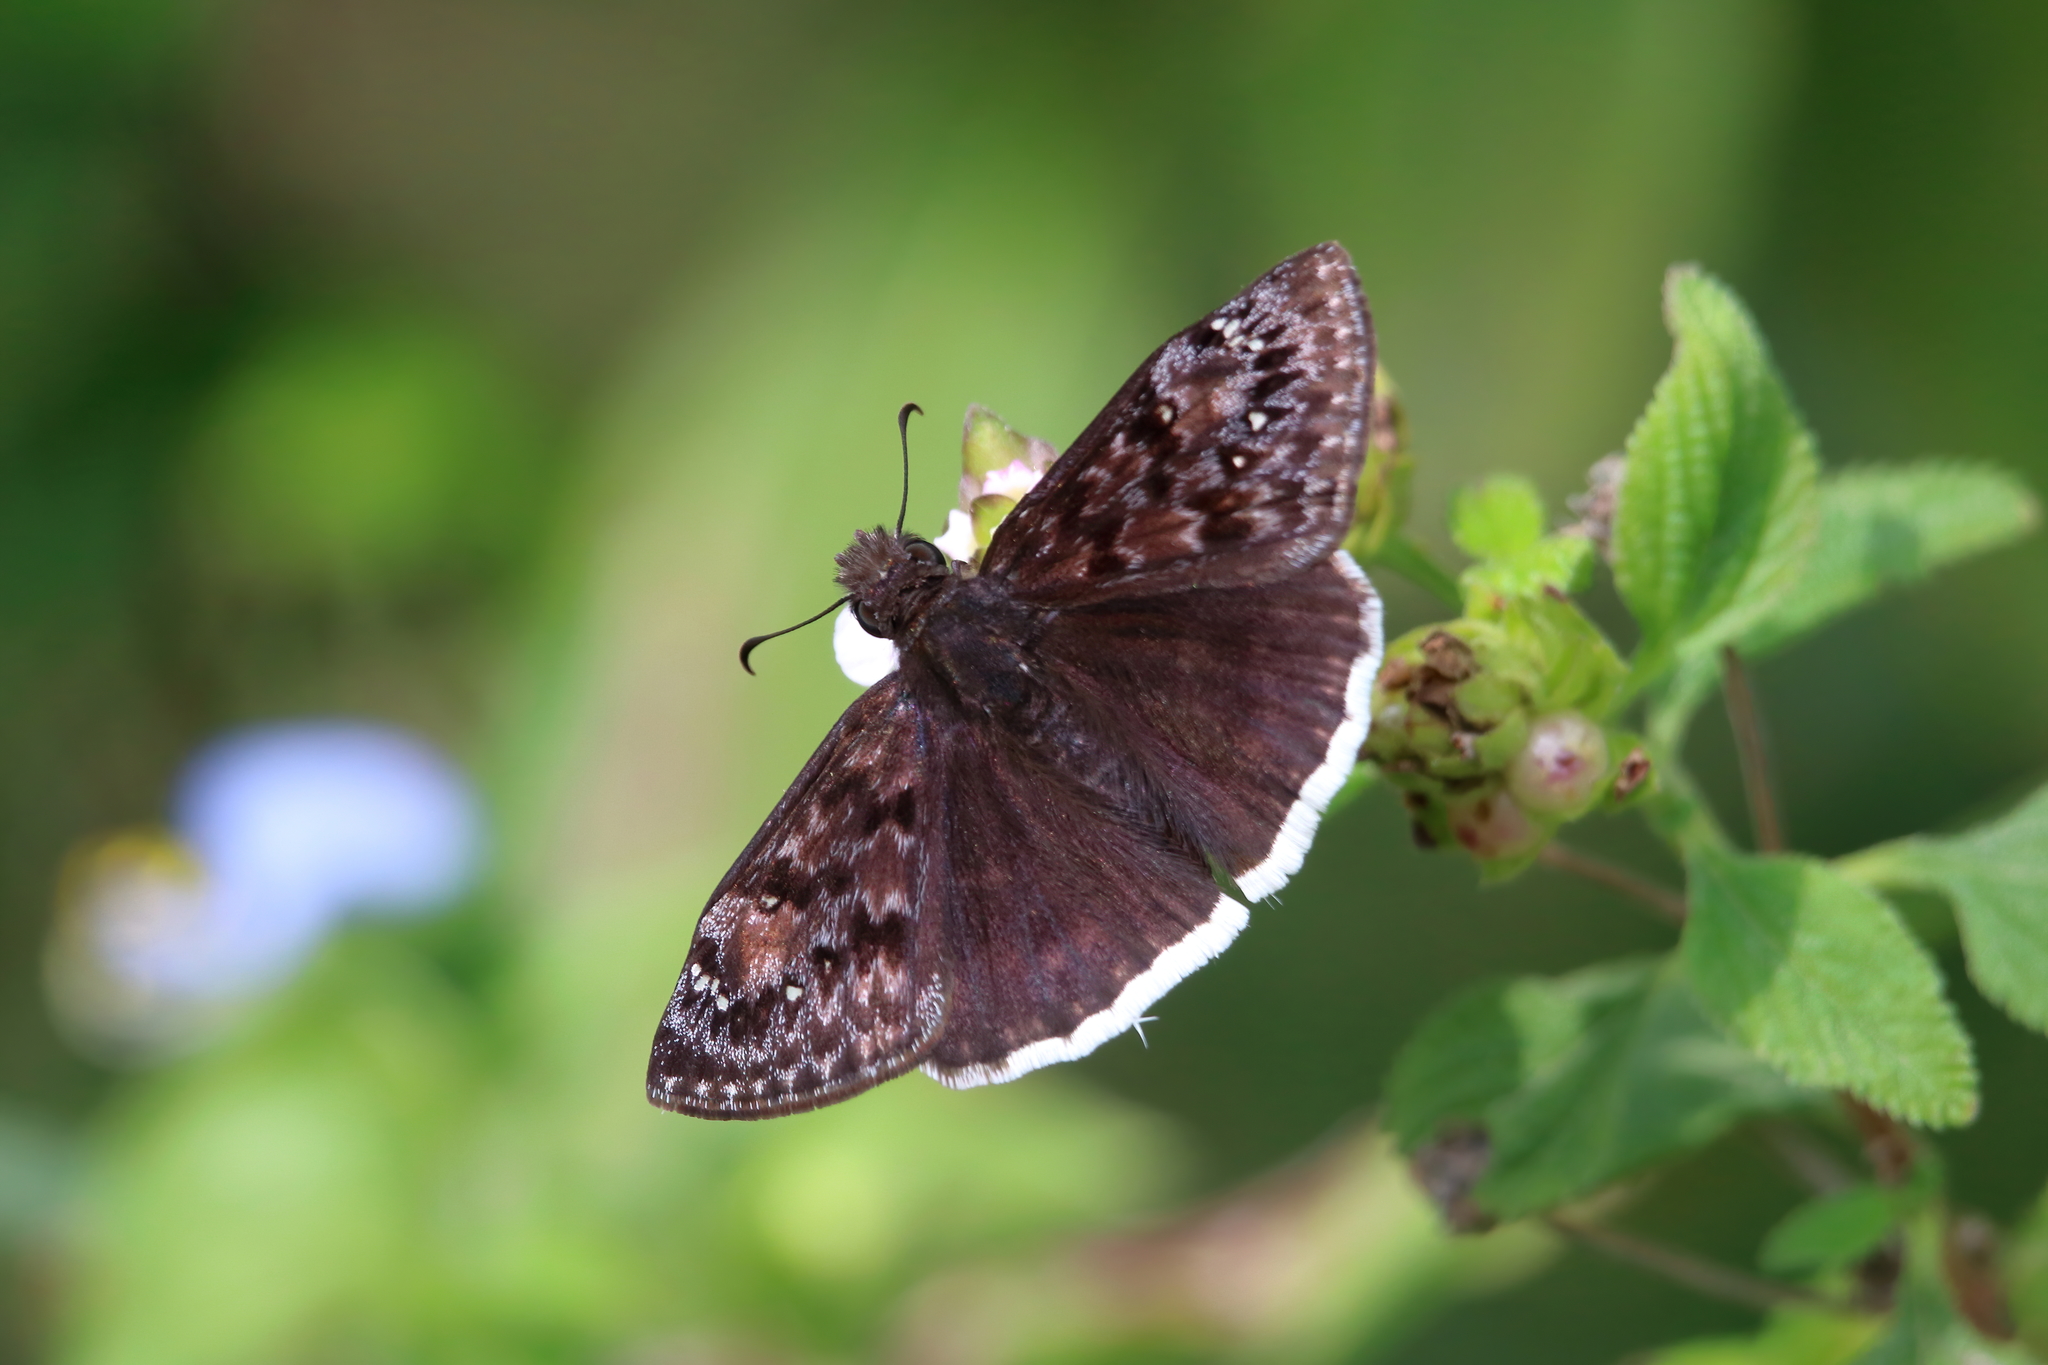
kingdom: Animalia
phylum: Arthropoda
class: Insecta
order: Lepidoptera
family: Hesperiidae
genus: Erynnis
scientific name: Erynnis tristis
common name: Mournful duskywing
